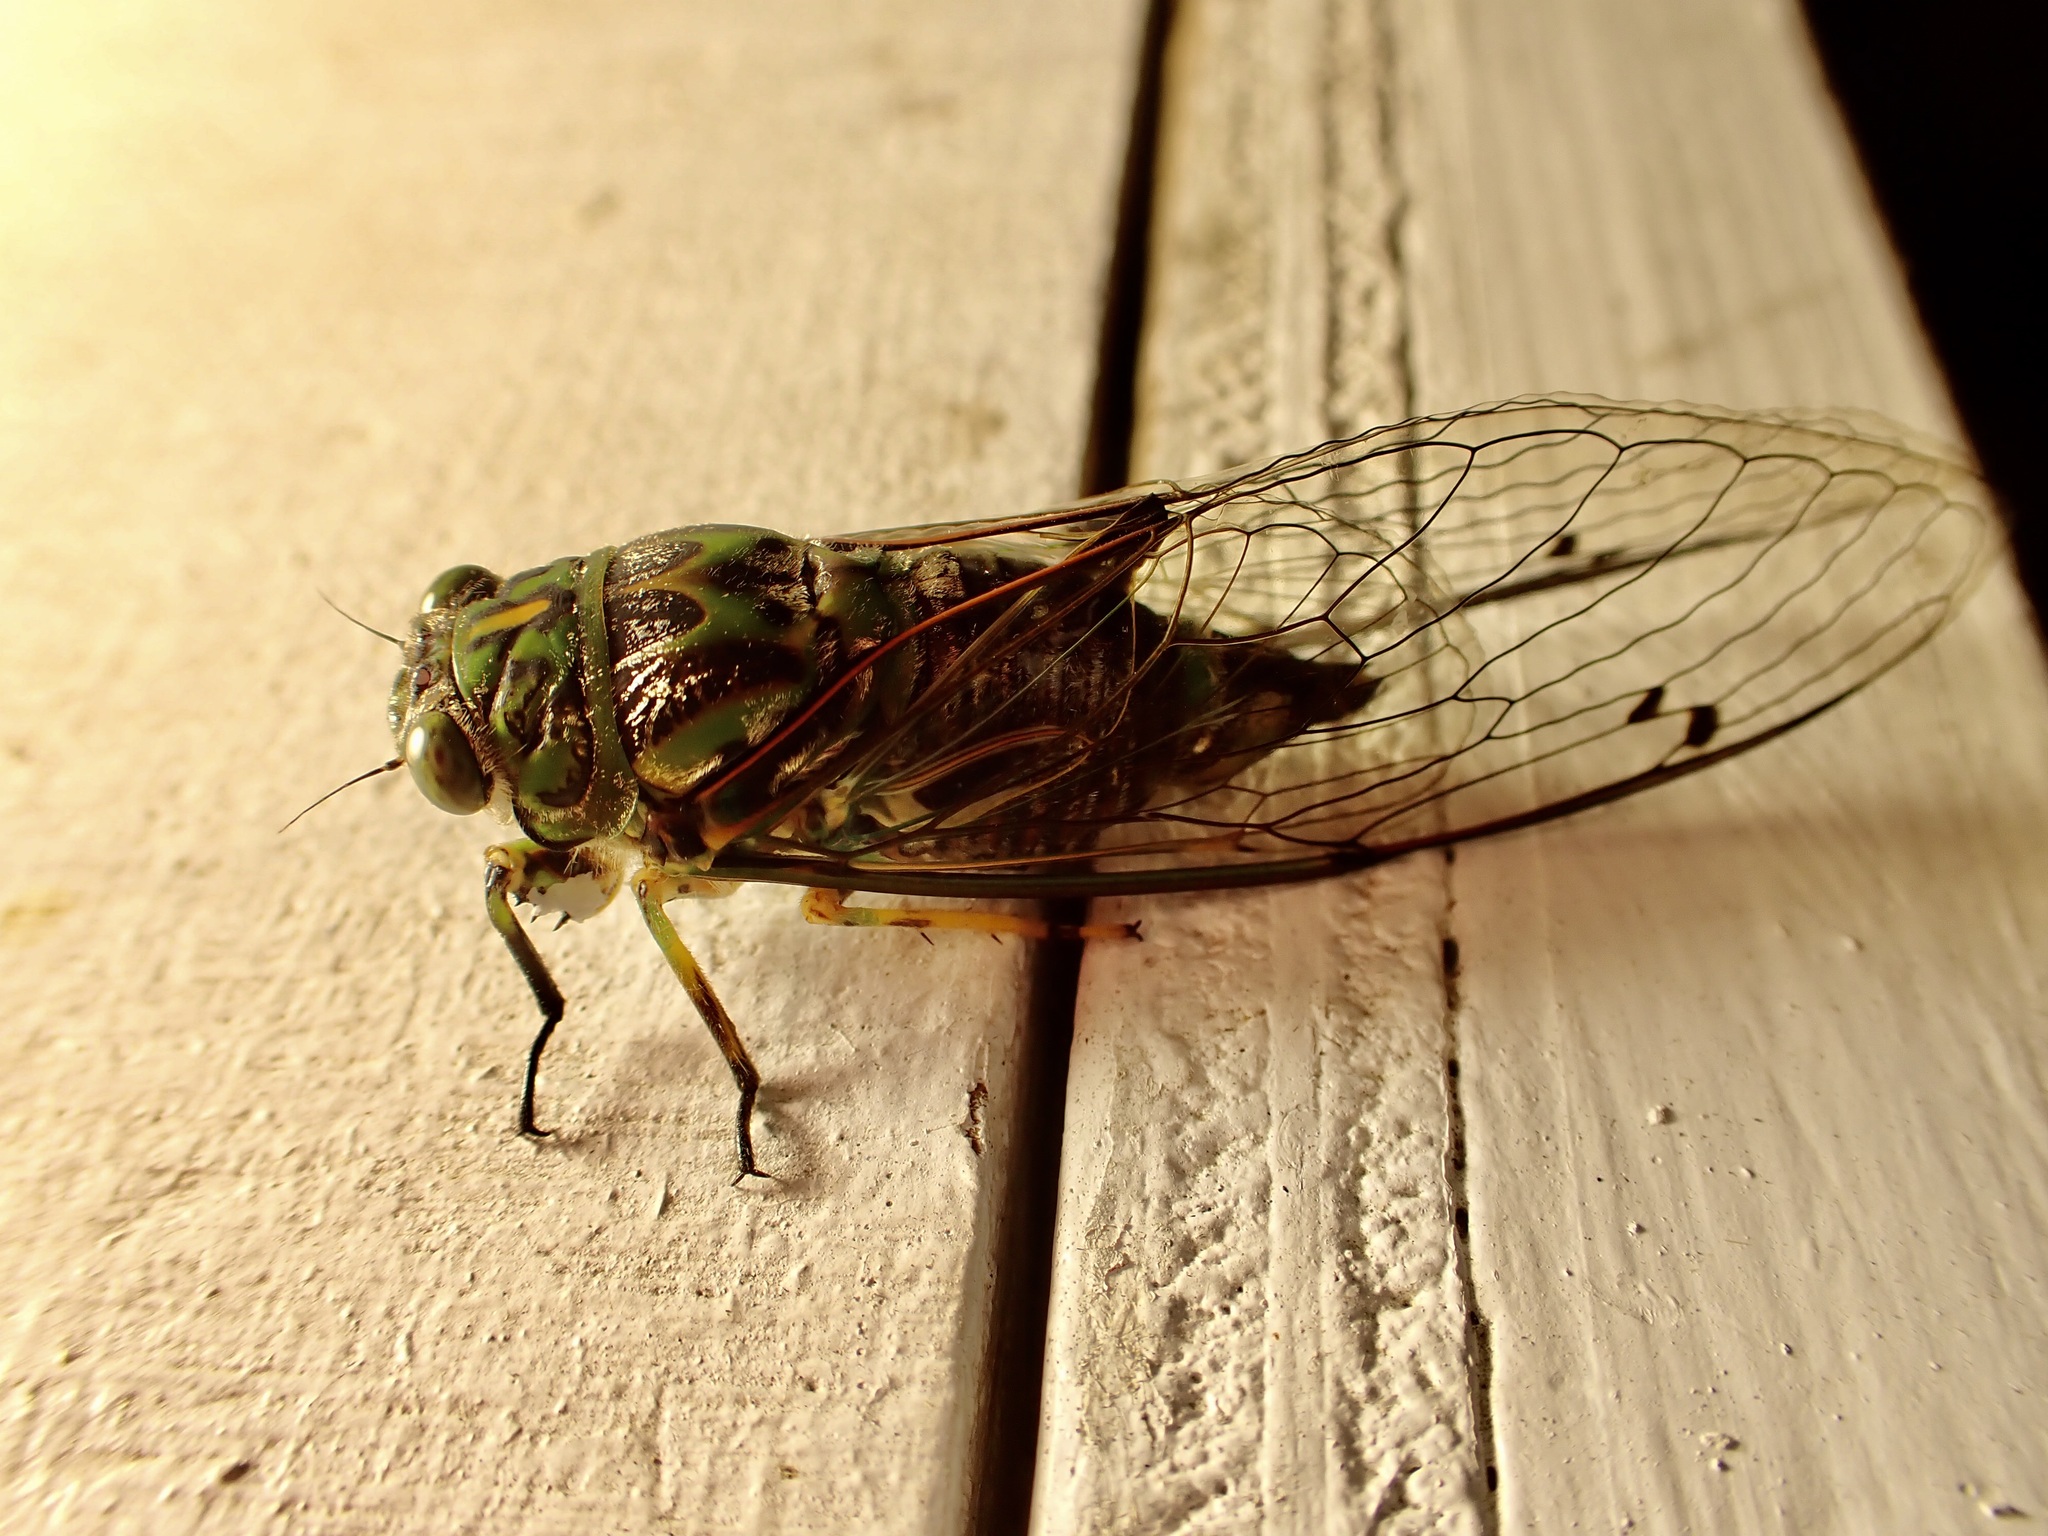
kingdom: Animalia
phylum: Arthropoda
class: Insecta
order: Hemiptera
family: Cicadidae
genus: Amphipsalta
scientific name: Amphipsalta zelandica
